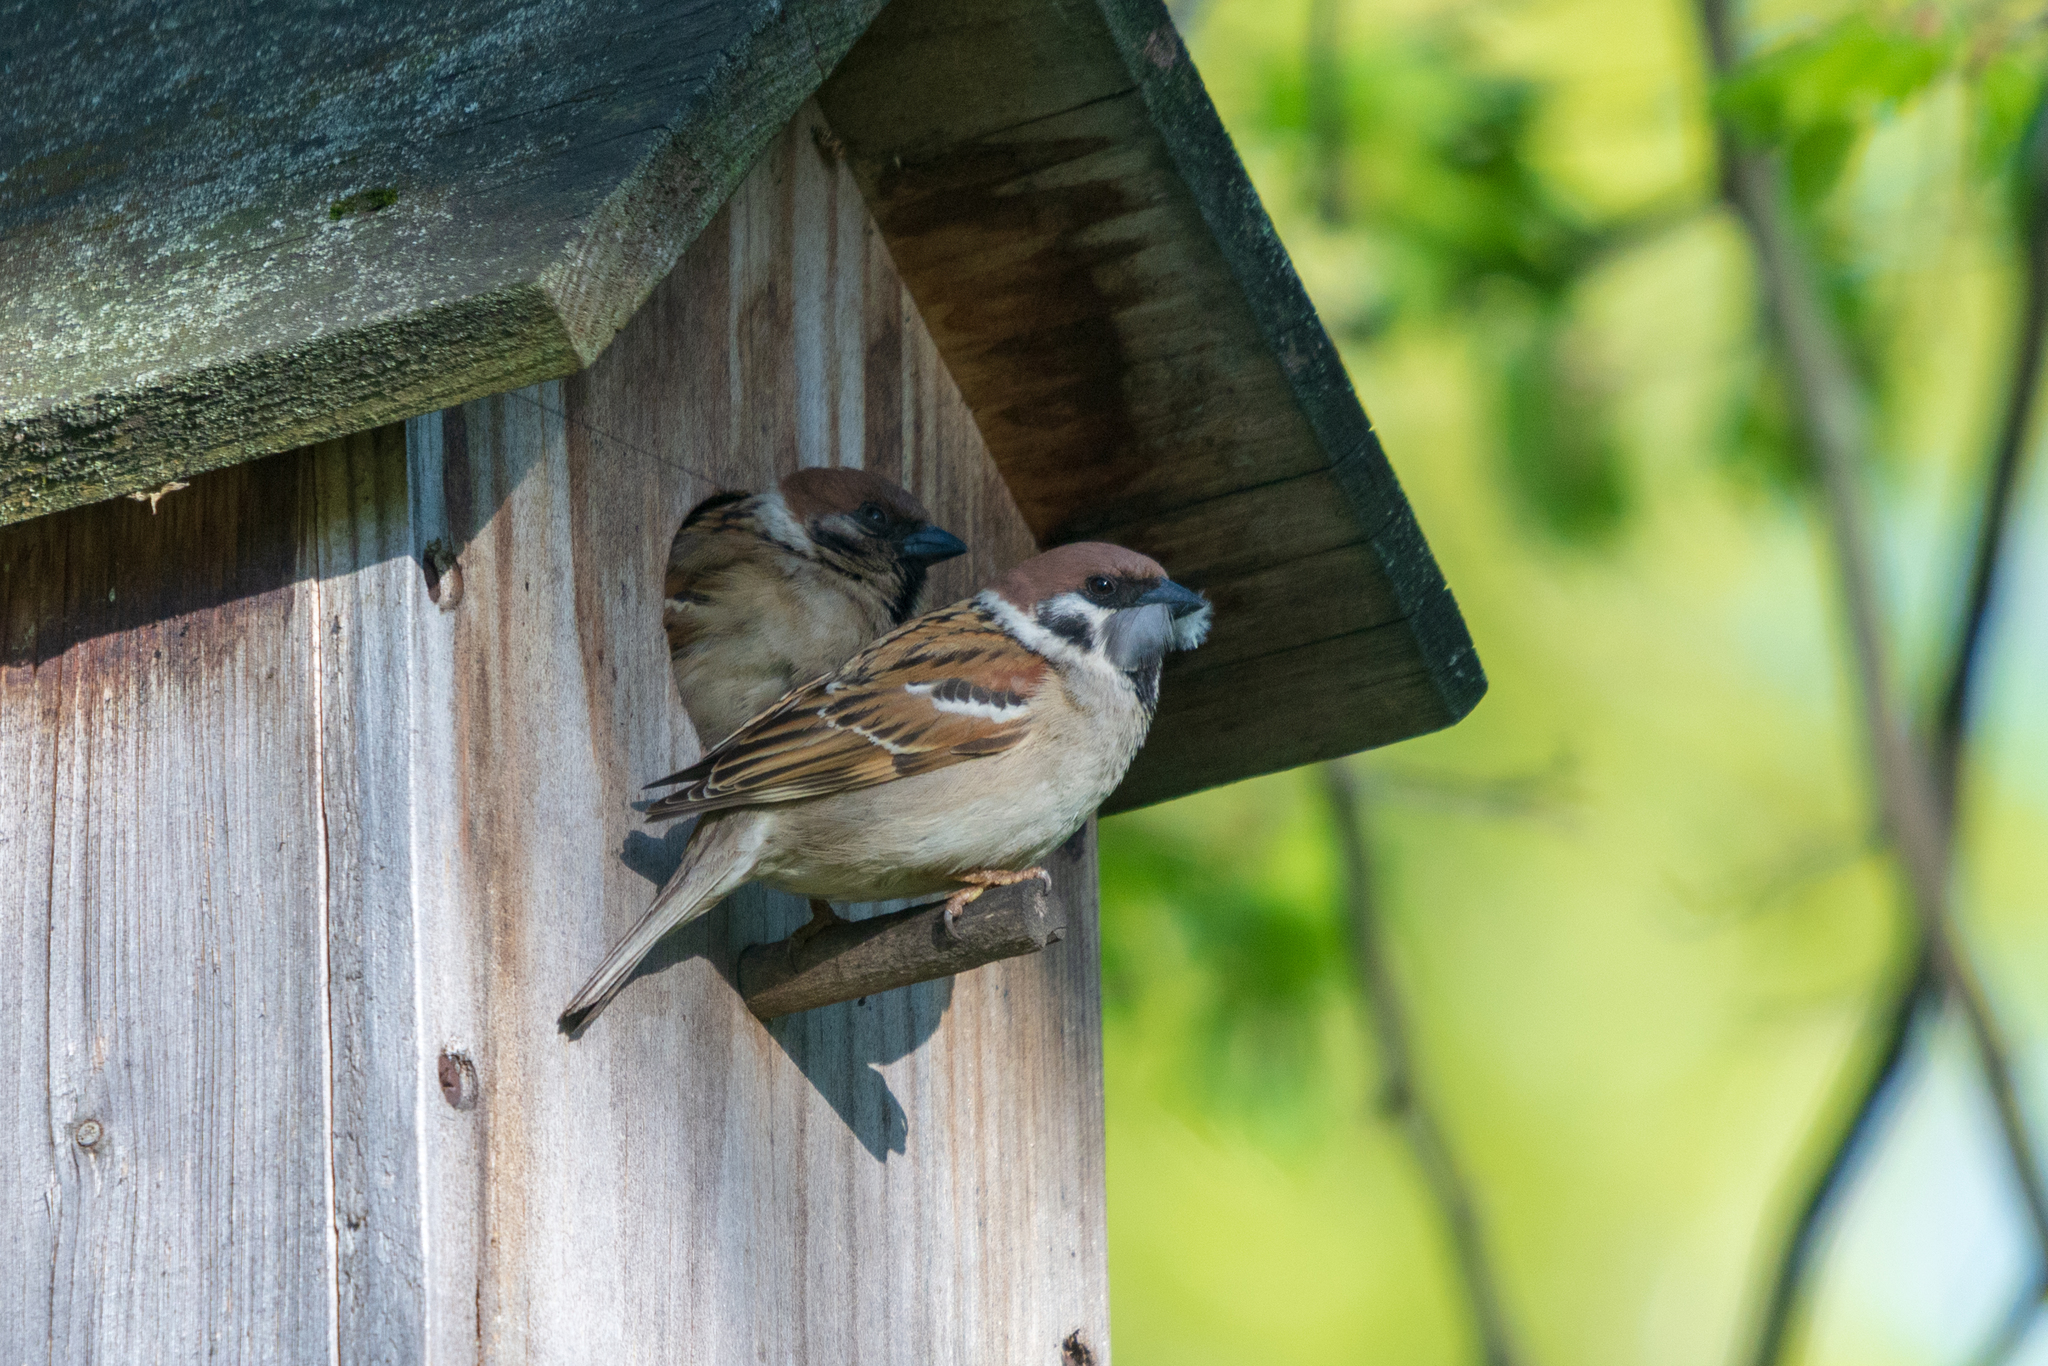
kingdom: Animalia
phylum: Chordata
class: Aves
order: Passeriformes
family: Passeridae
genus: Passer
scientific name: Passer montanus
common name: Eurasian tree sparrow
